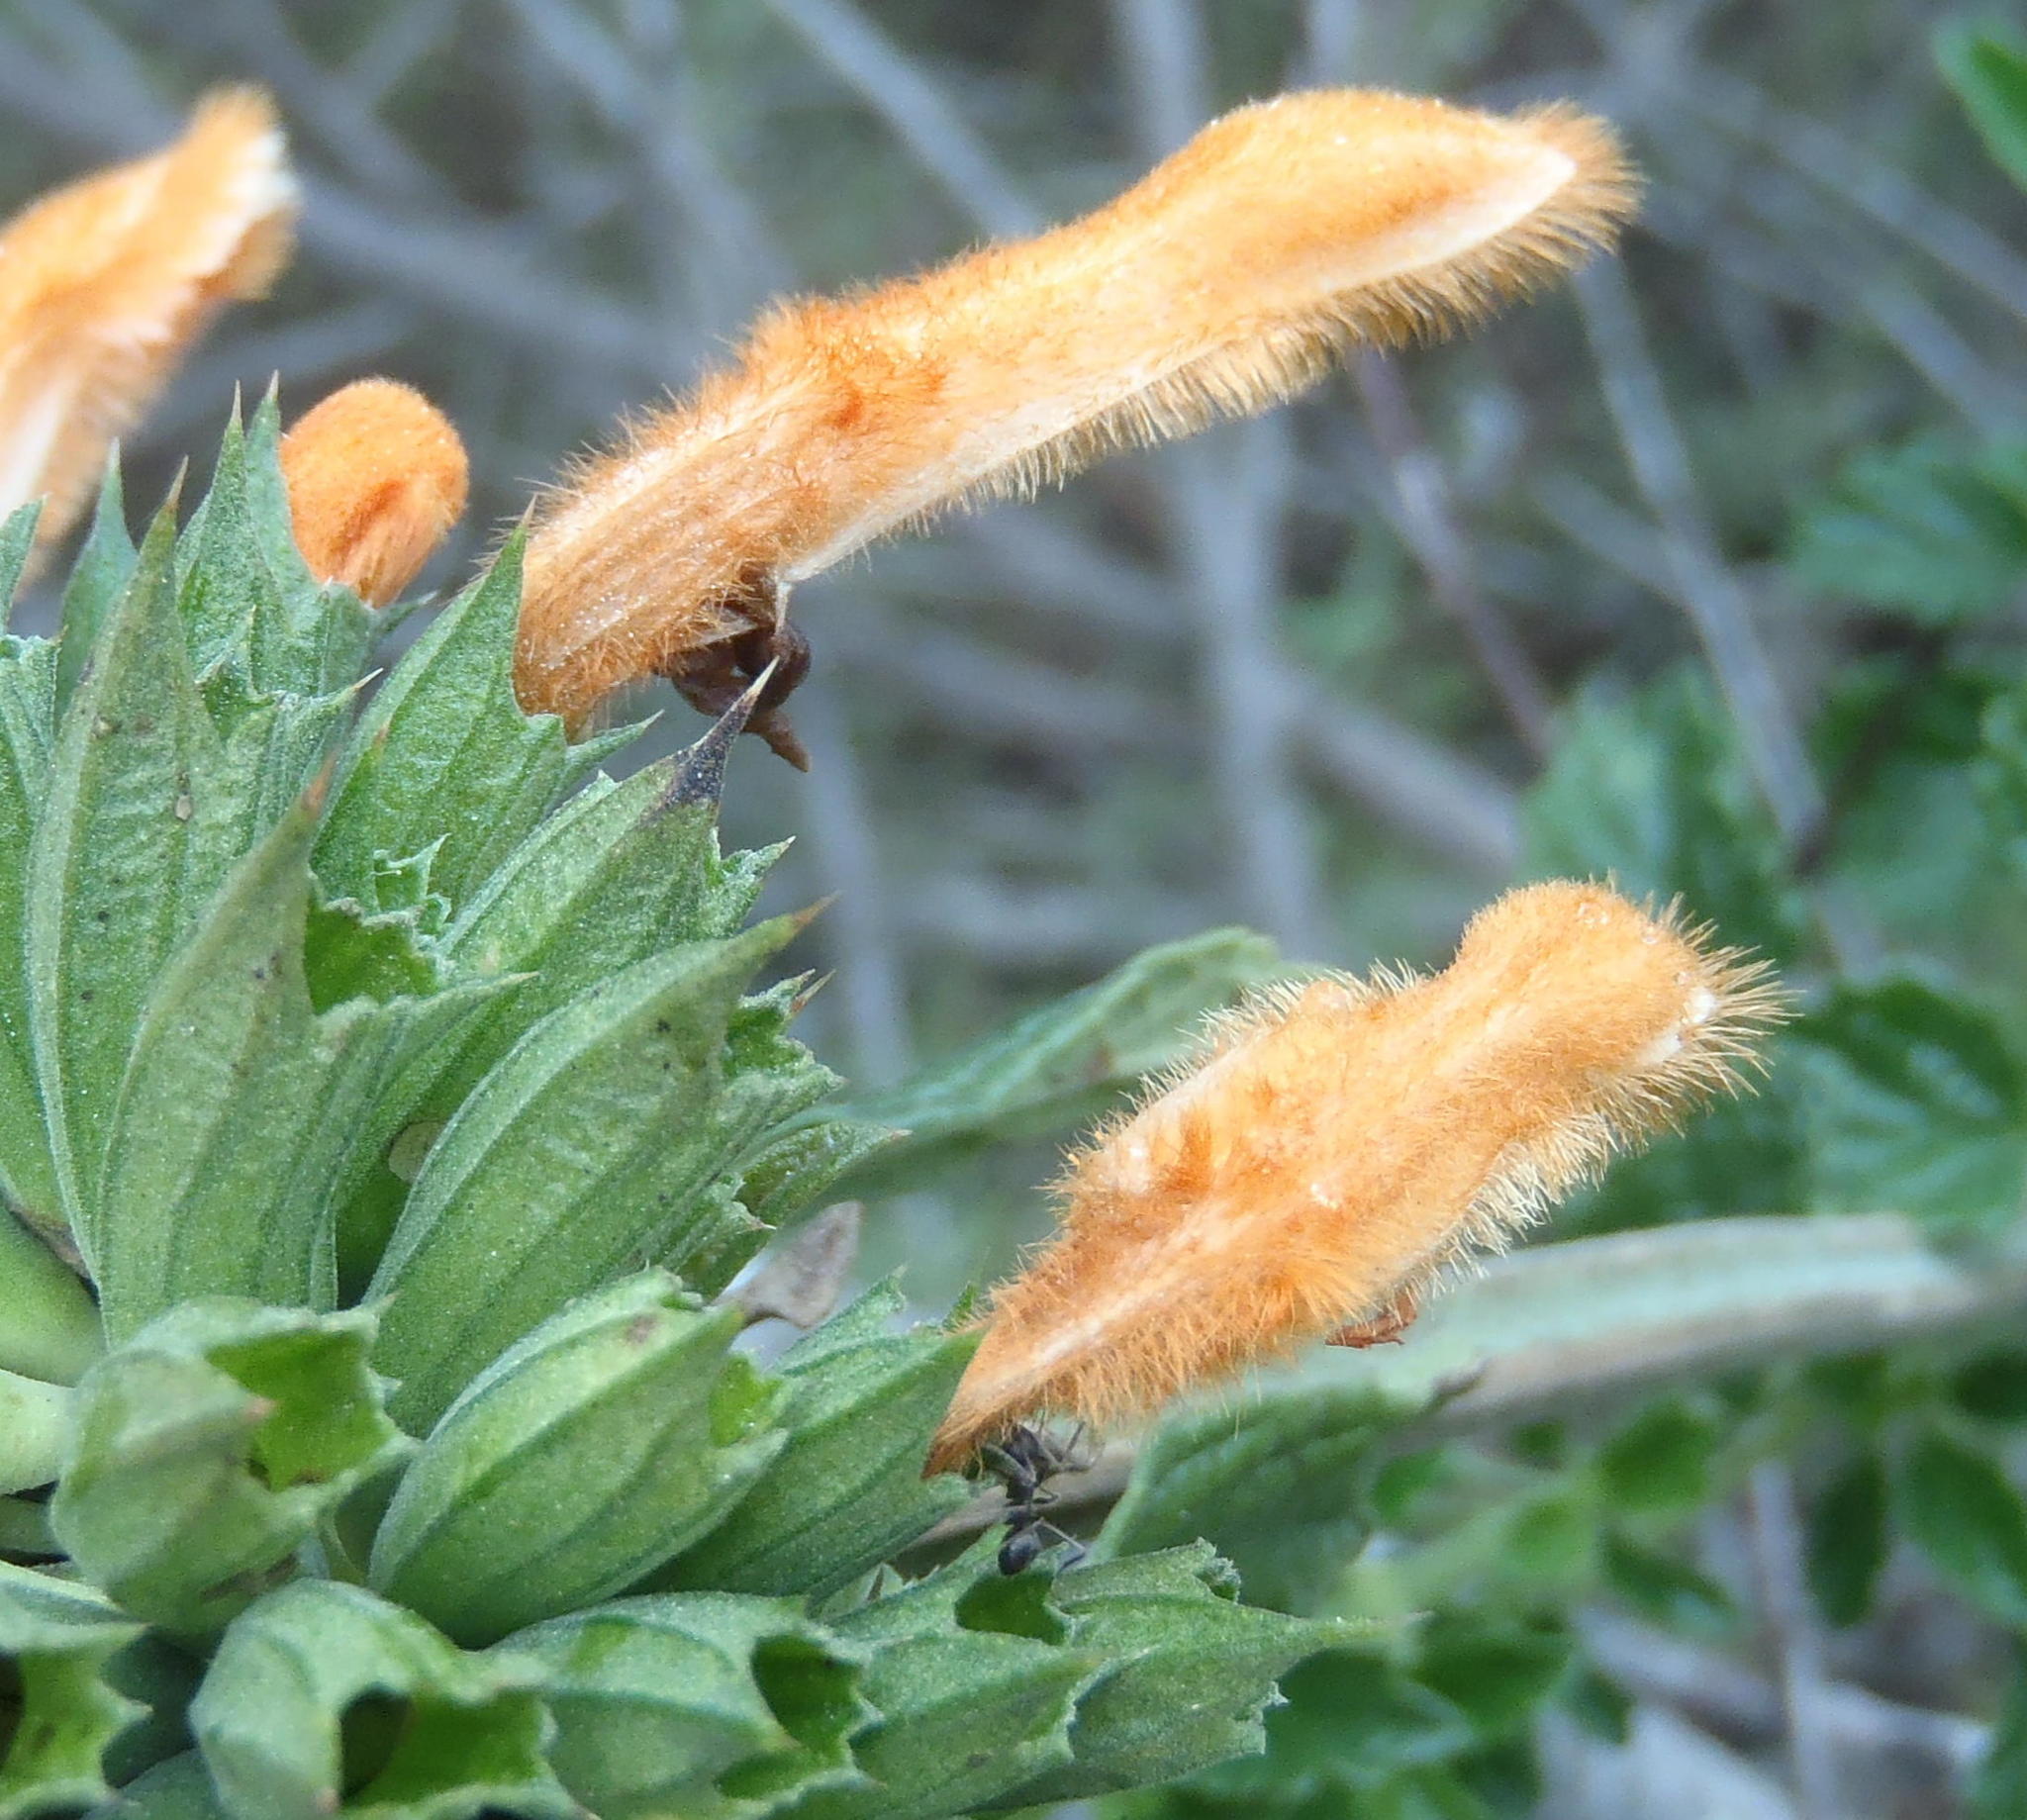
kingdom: Plantae
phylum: Tracheophyta
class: Magnoliopsida
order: Lamiales
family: Lamiaceae
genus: Leonotis
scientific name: Leonotis ocymifolia
